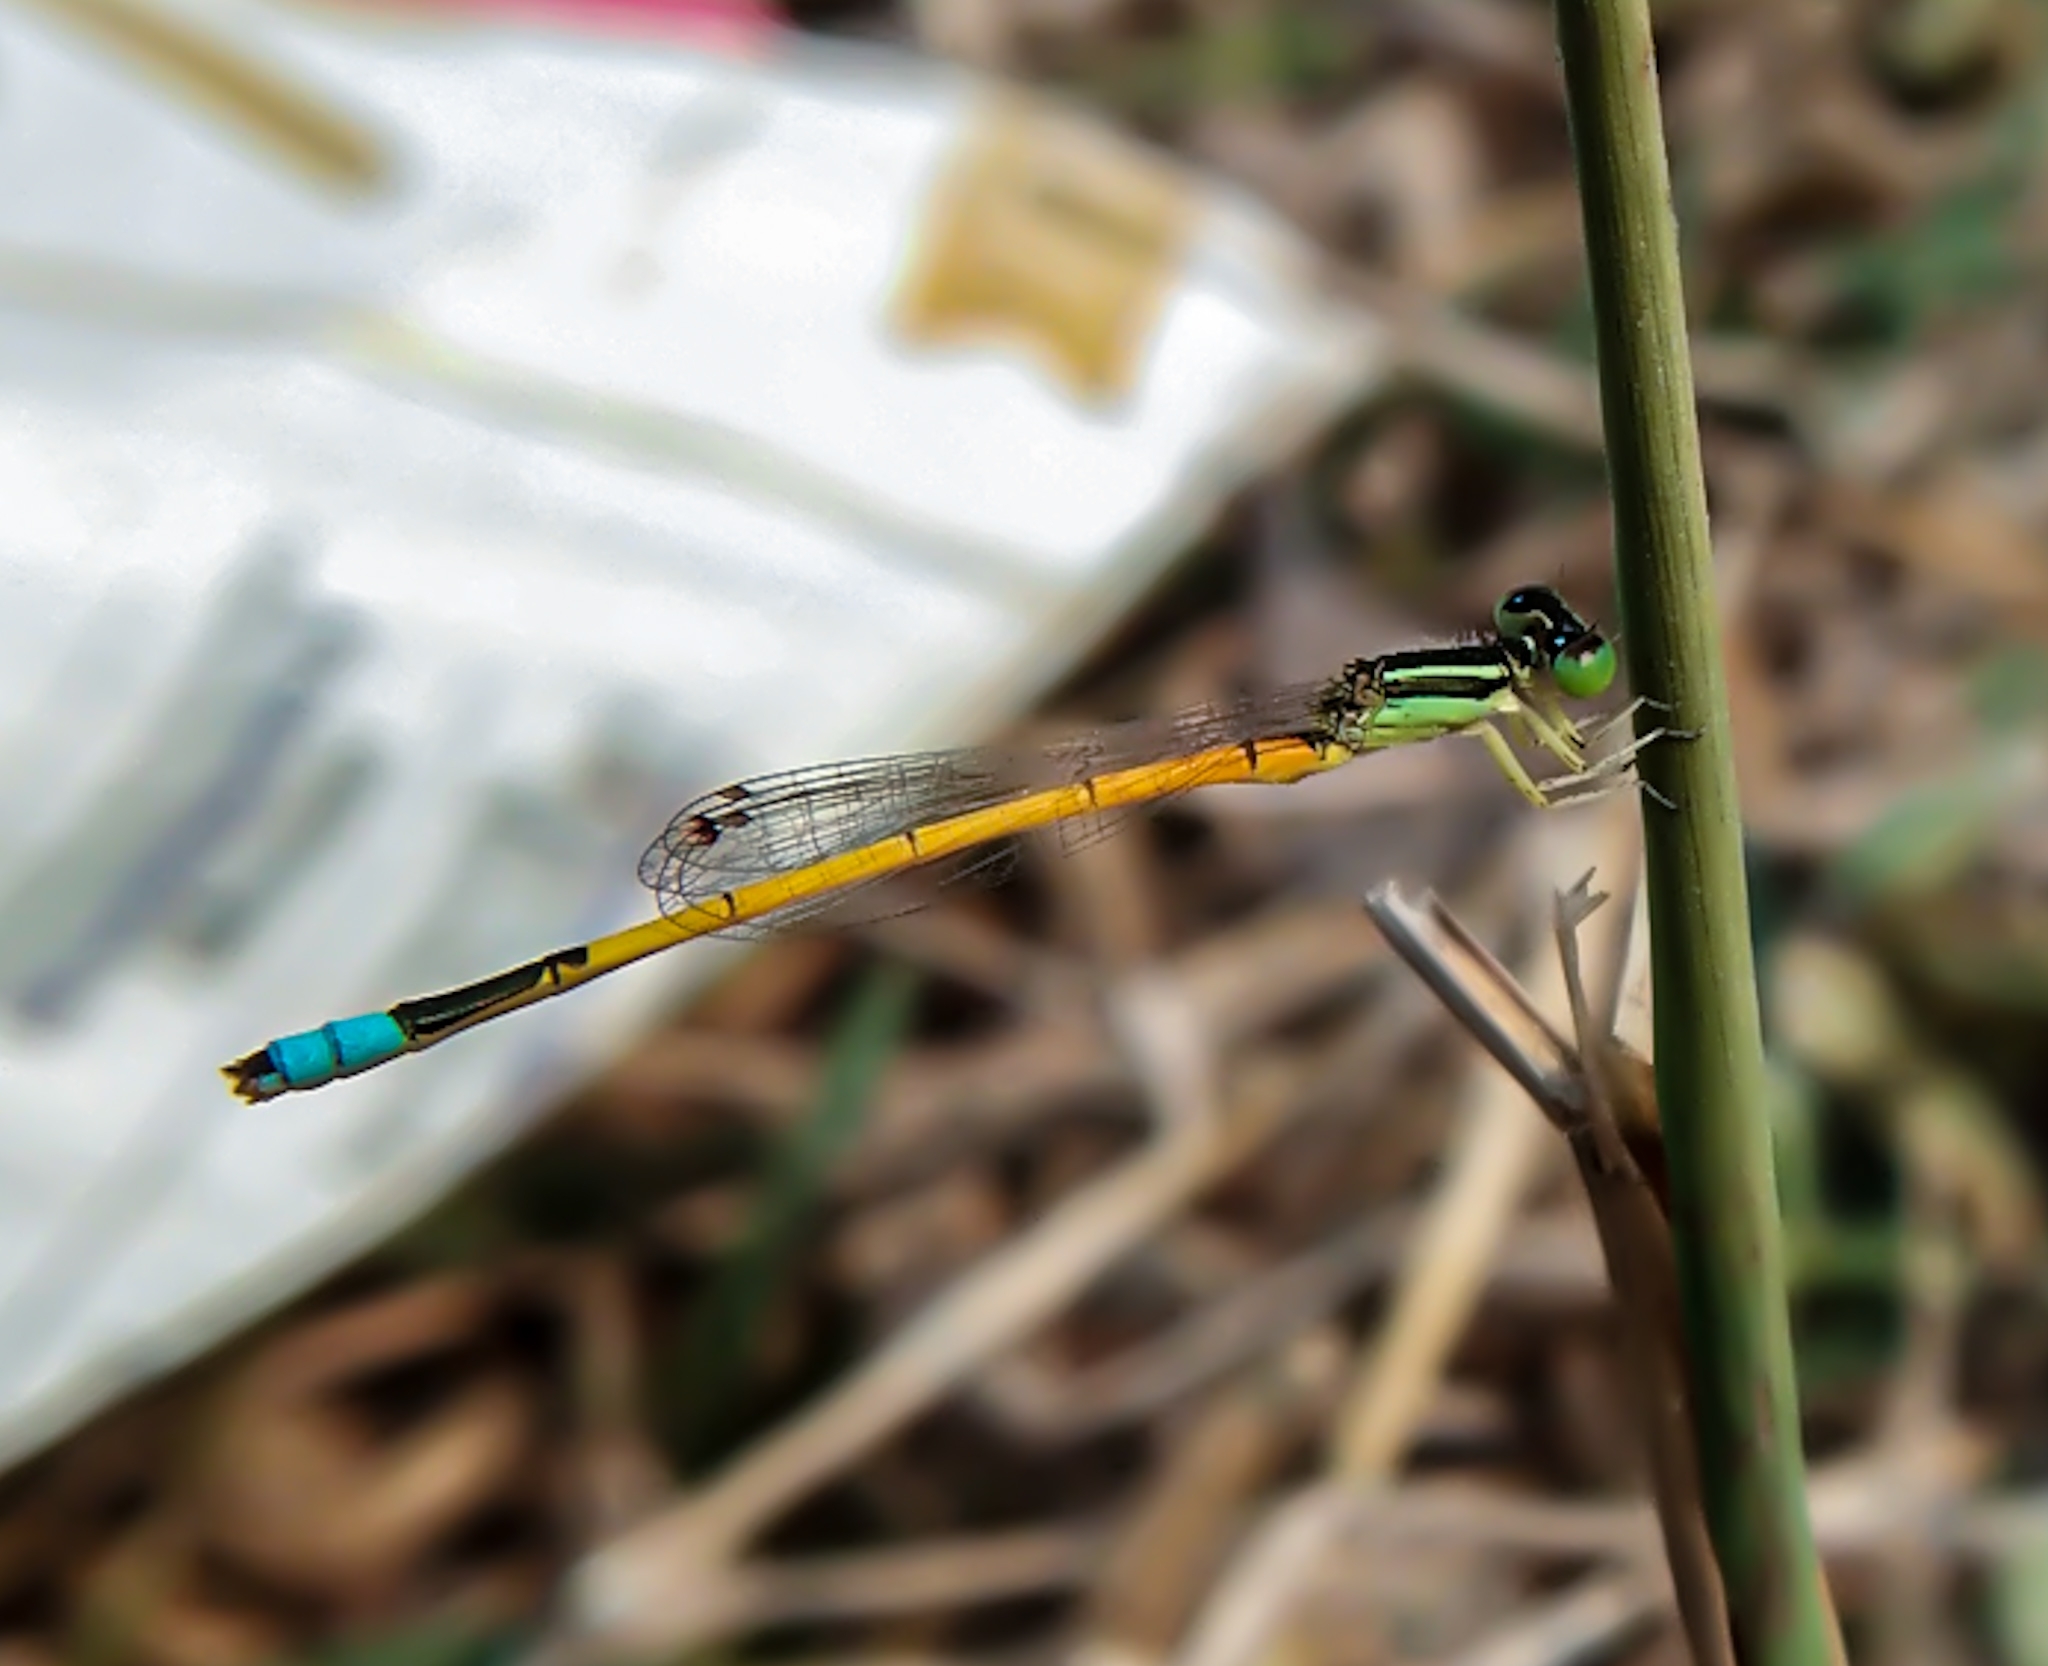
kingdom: Animalia
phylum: Arthropoda
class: Insecta
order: Odonata
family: Coenagrionidae
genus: Ischnura
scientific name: Ischnura rubilio
